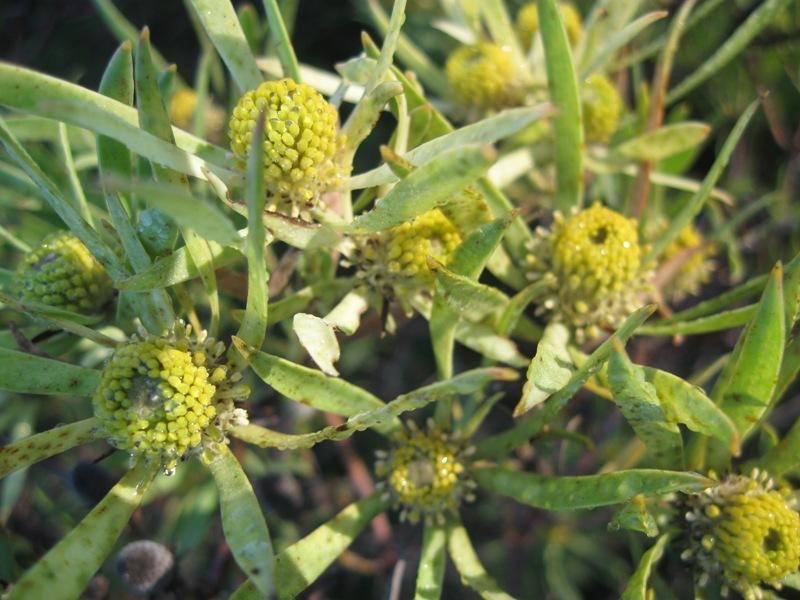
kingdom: Plantae
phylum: Tracheophyta
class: Magnoliopsida
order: Proteales
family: Proteaceae
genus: Leucadendron
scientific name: Leucadendron salignum
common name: Common sunshine conebush
